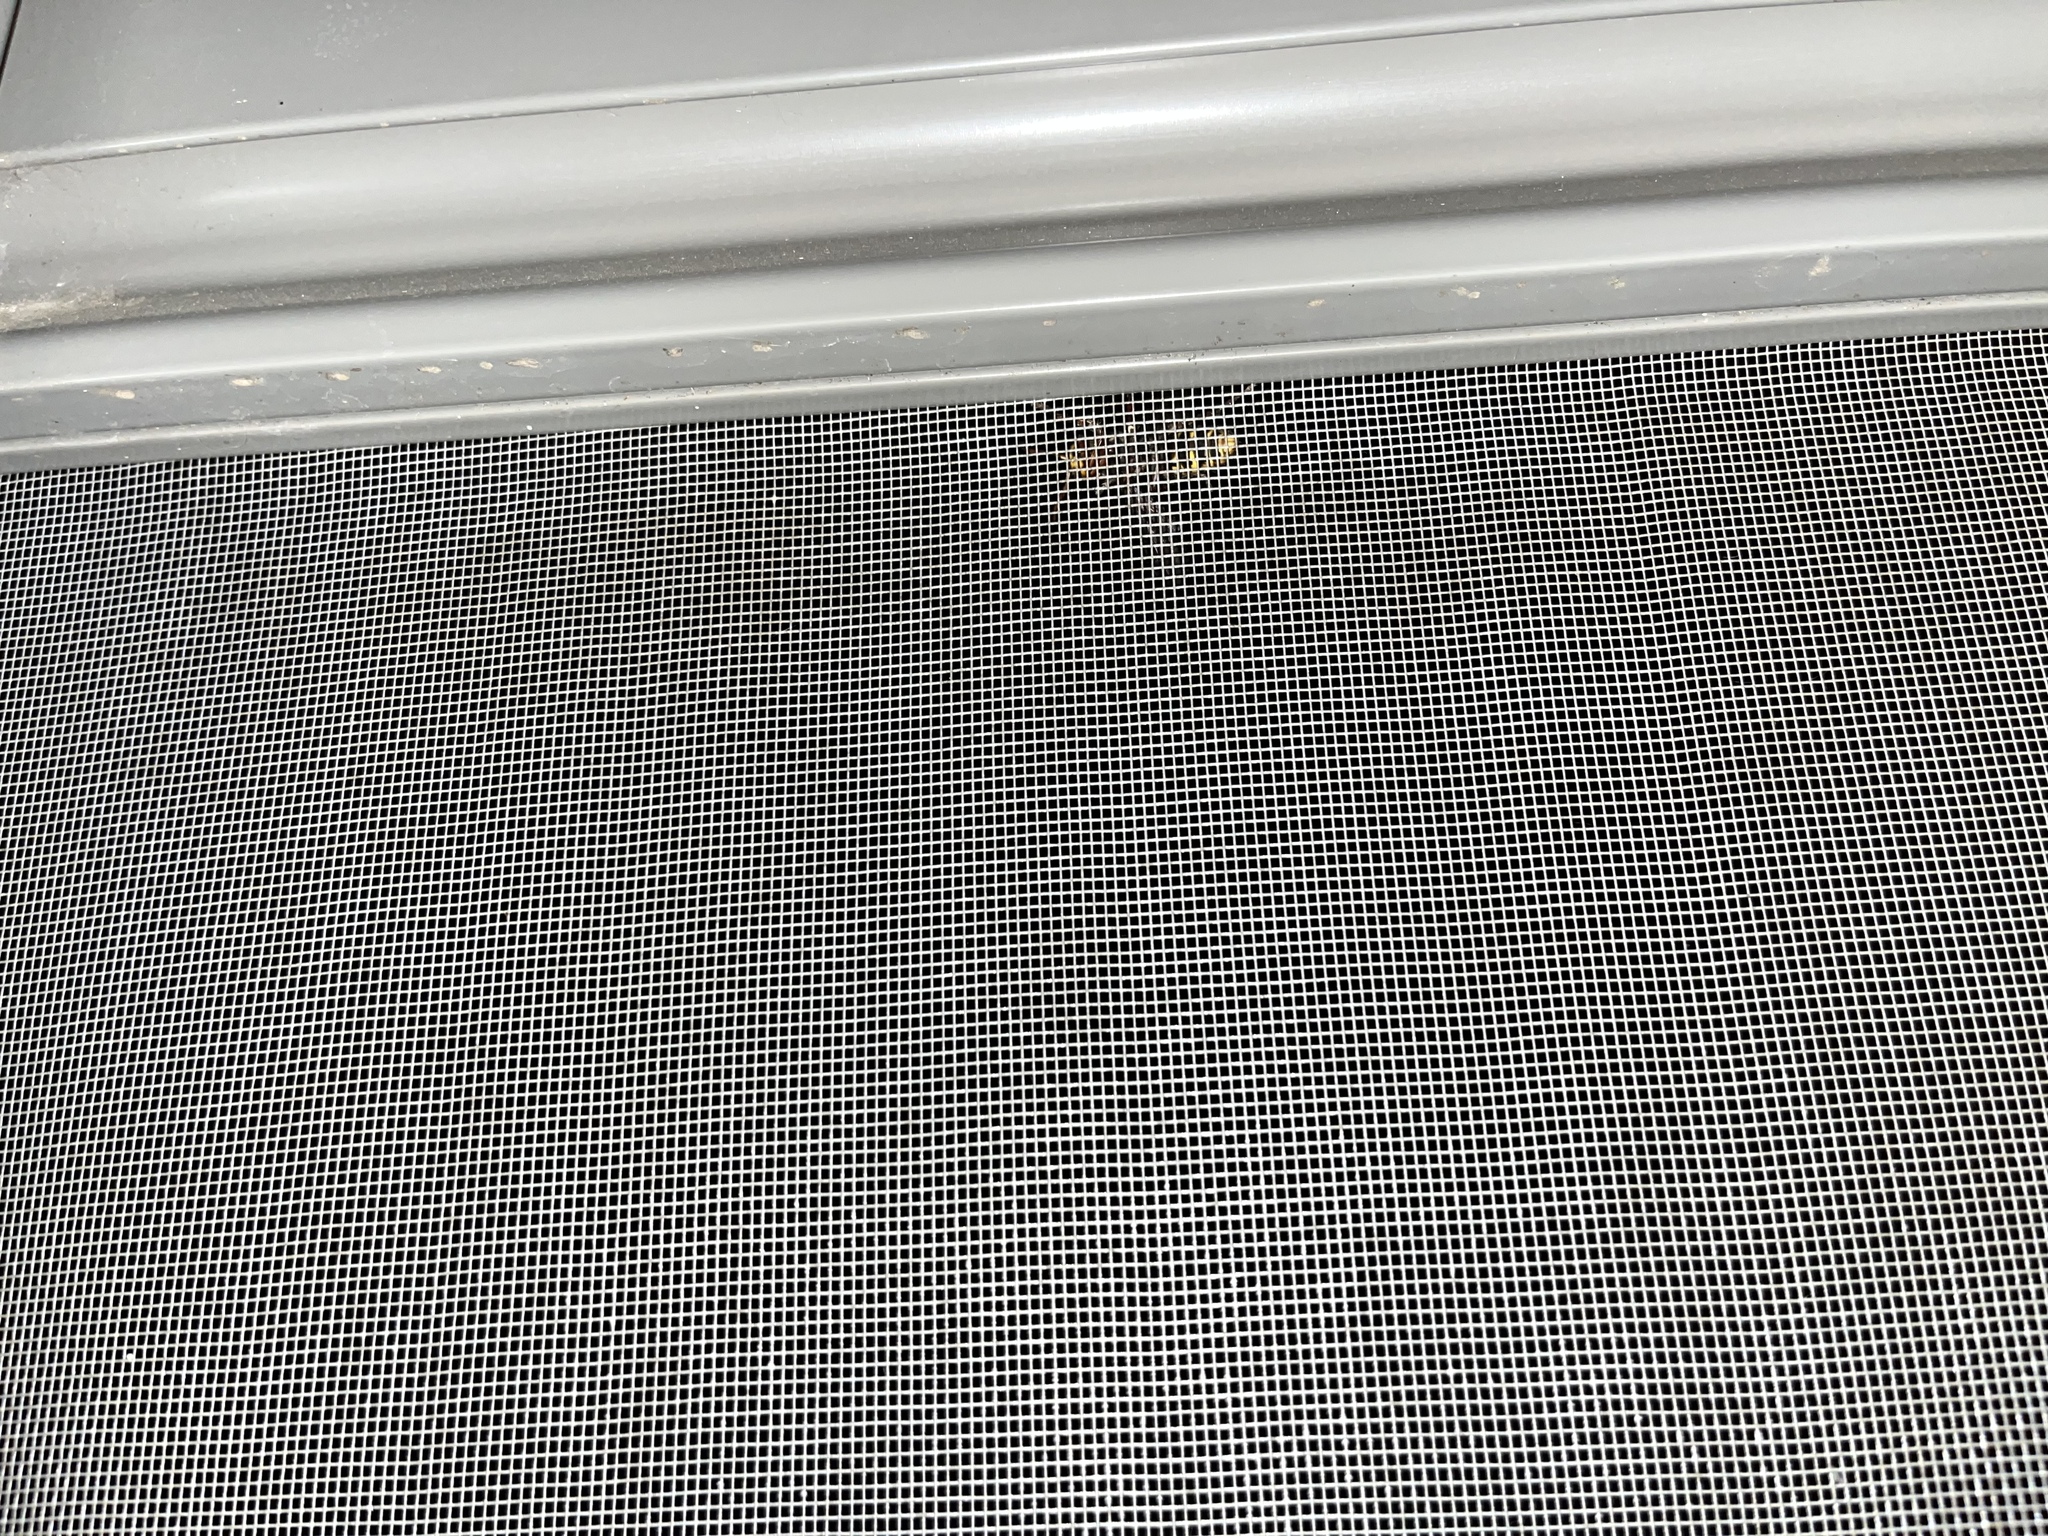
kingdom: Animalia
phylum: Arthropoda
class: Insecta
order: Hymenoptera
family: Vespidae
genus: Vespa
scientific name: Vespa crabro
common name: Hornet
